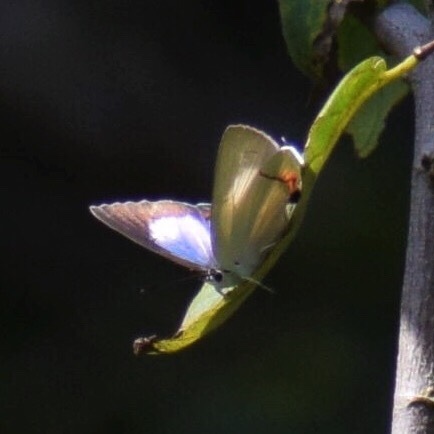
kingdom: Animalia
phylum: Arthropoda
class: Insecta
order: Lepidoptera
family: Lycaenidae
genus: Argiolaus
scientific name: Argiolaus silas
